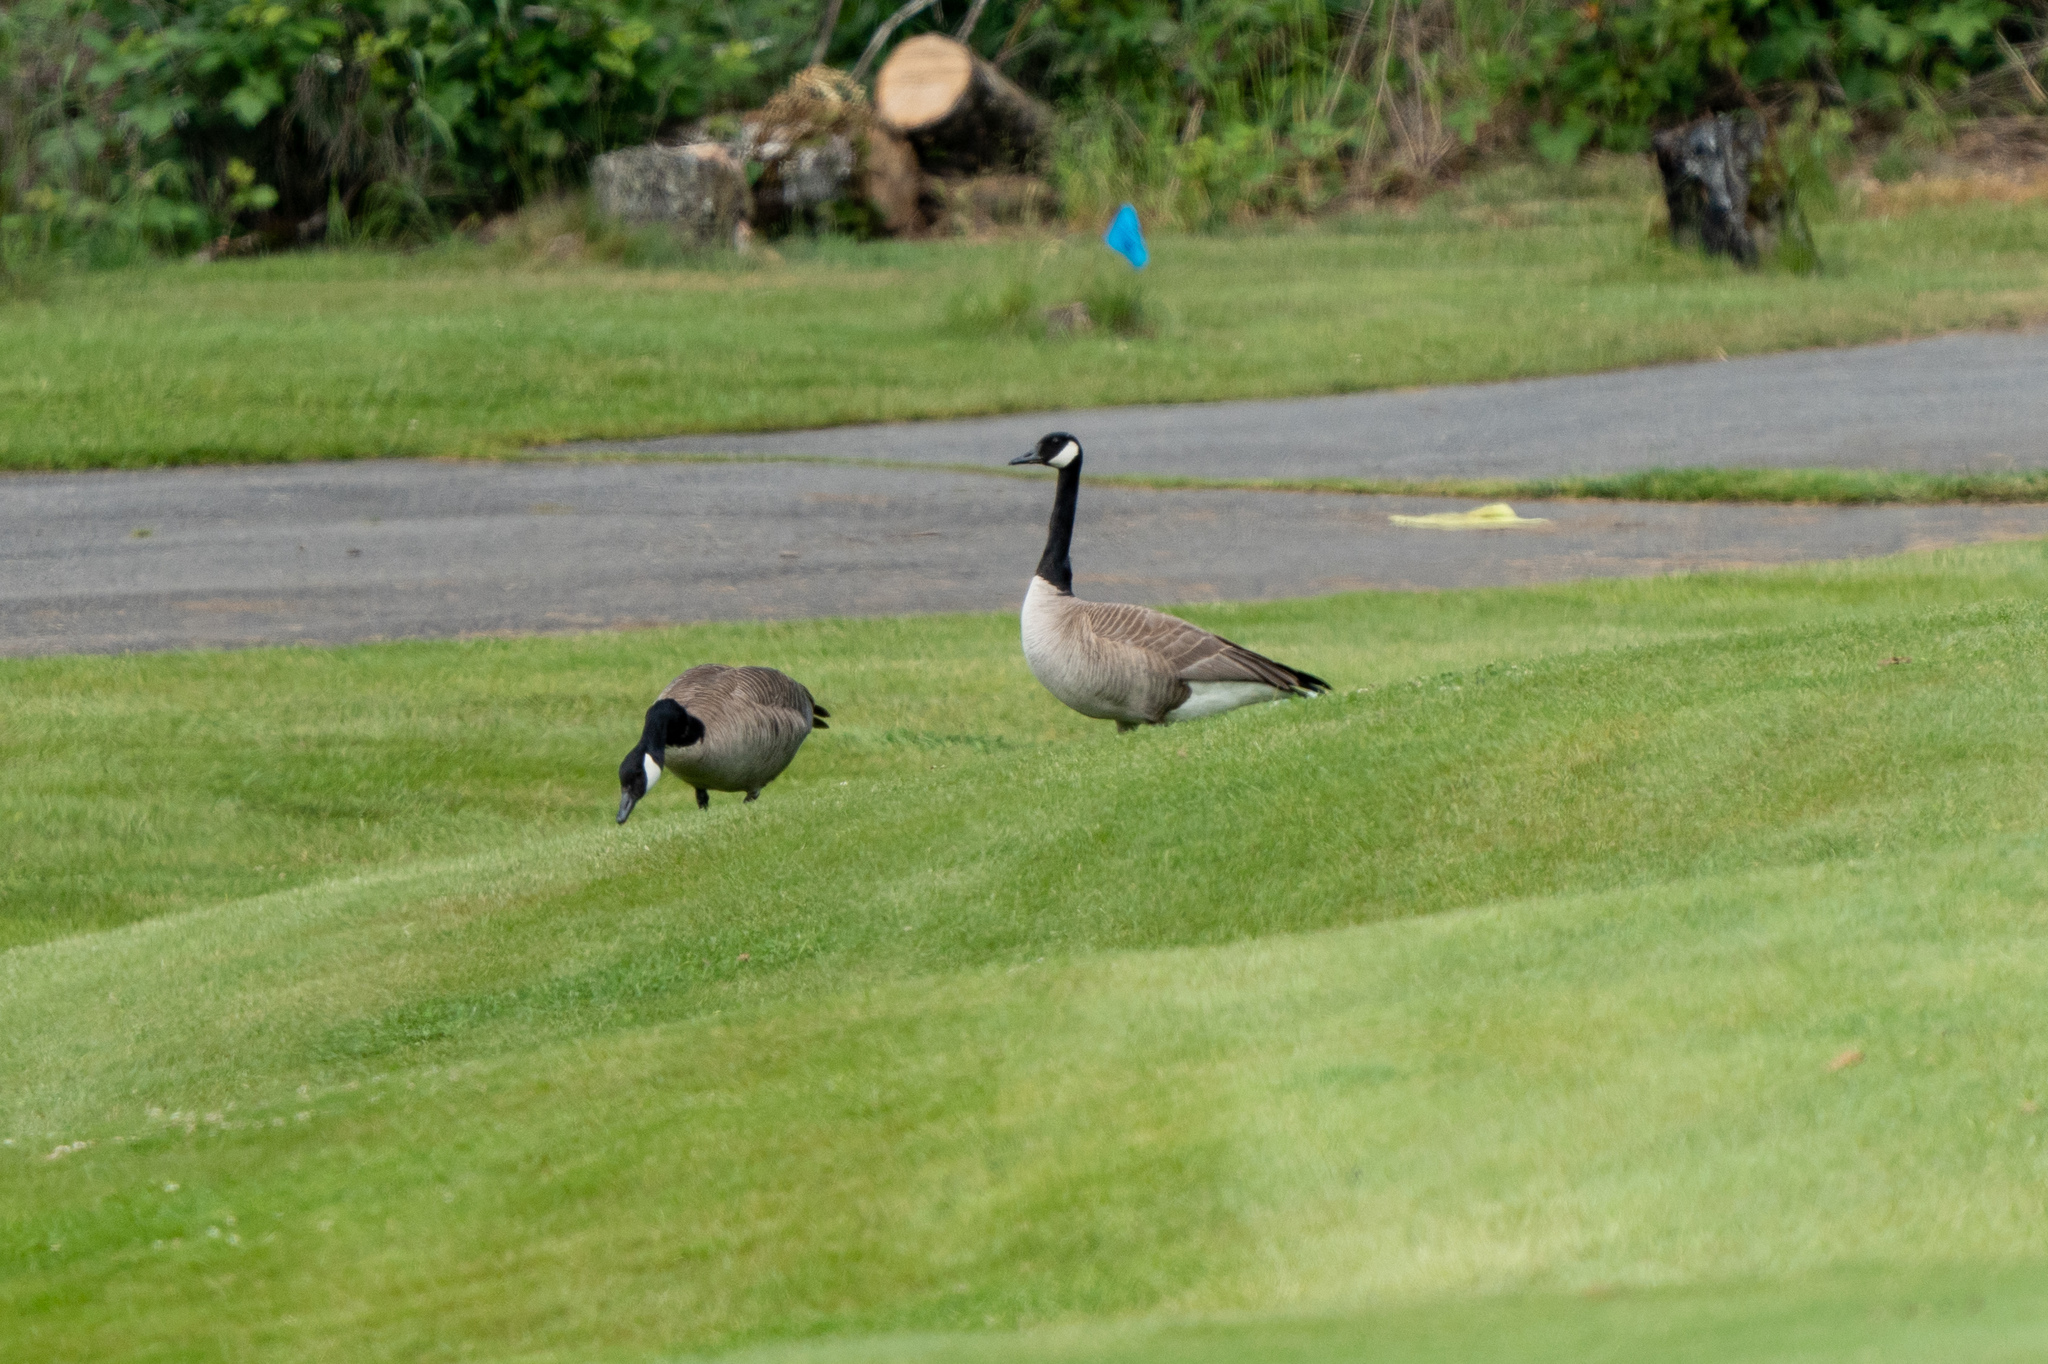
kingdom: Animalia
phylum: Chordata
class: Aves
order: Anseriformes
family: Anatidae
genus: Branta
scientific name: Branta canadensis
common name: Canada goose
